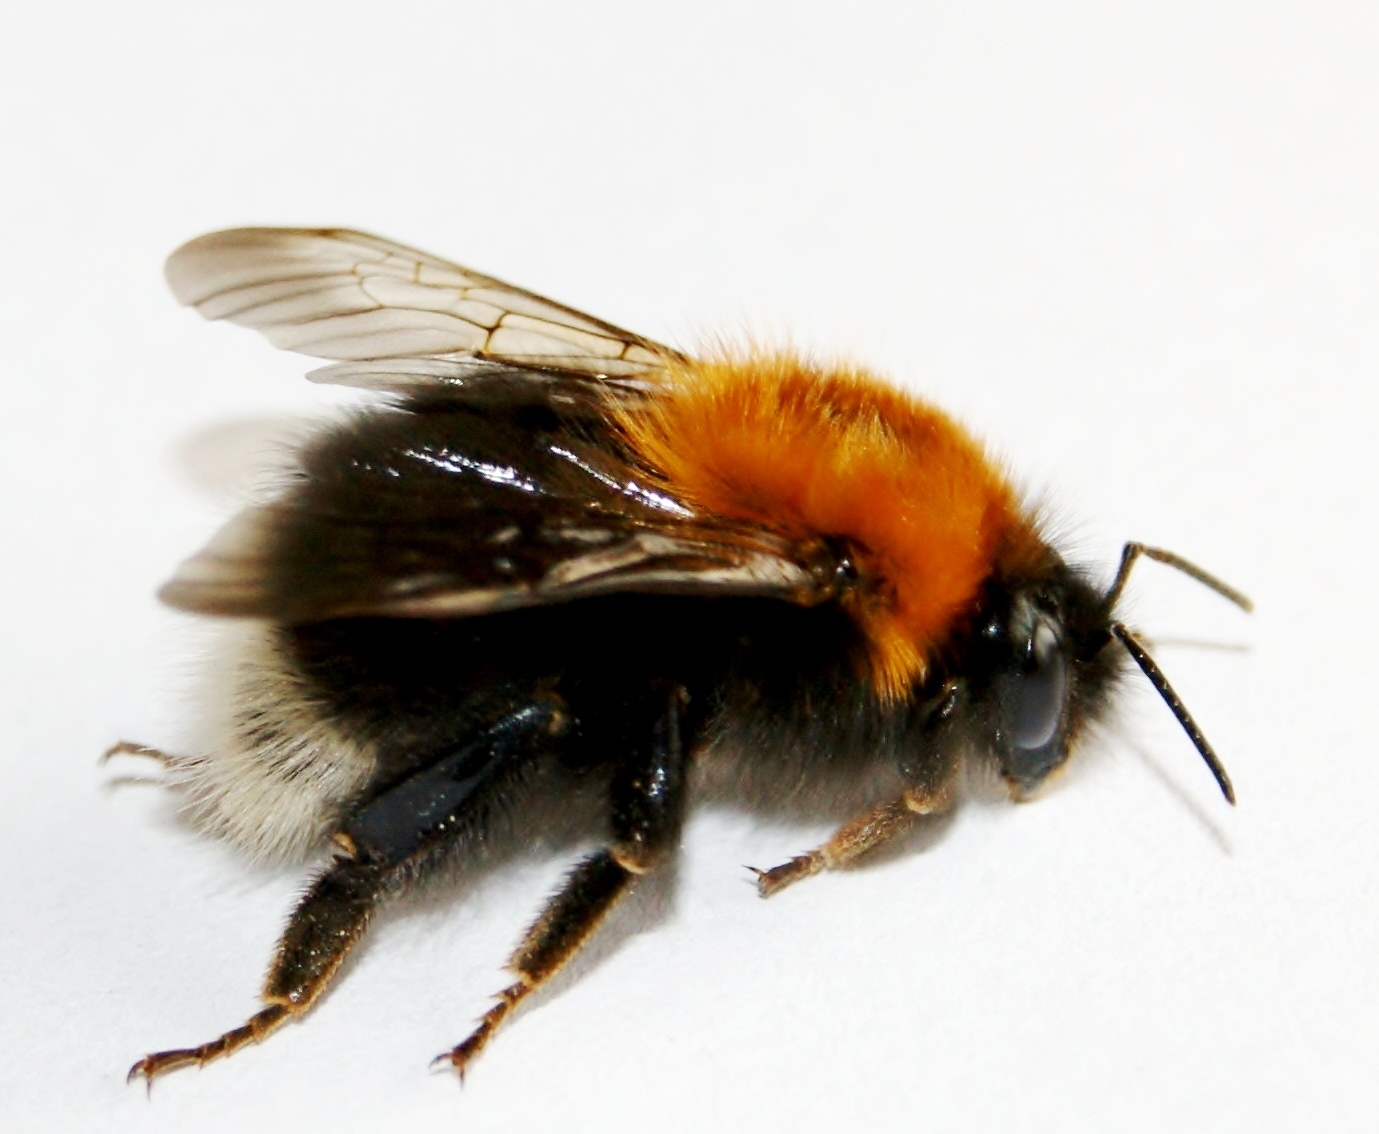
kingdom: Animalia
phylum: Arthropoda
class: Insecta
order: Hymenoptera
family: Apidae
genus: Bombus
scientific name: Bombus hypnorum
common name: New garden bumblebee
